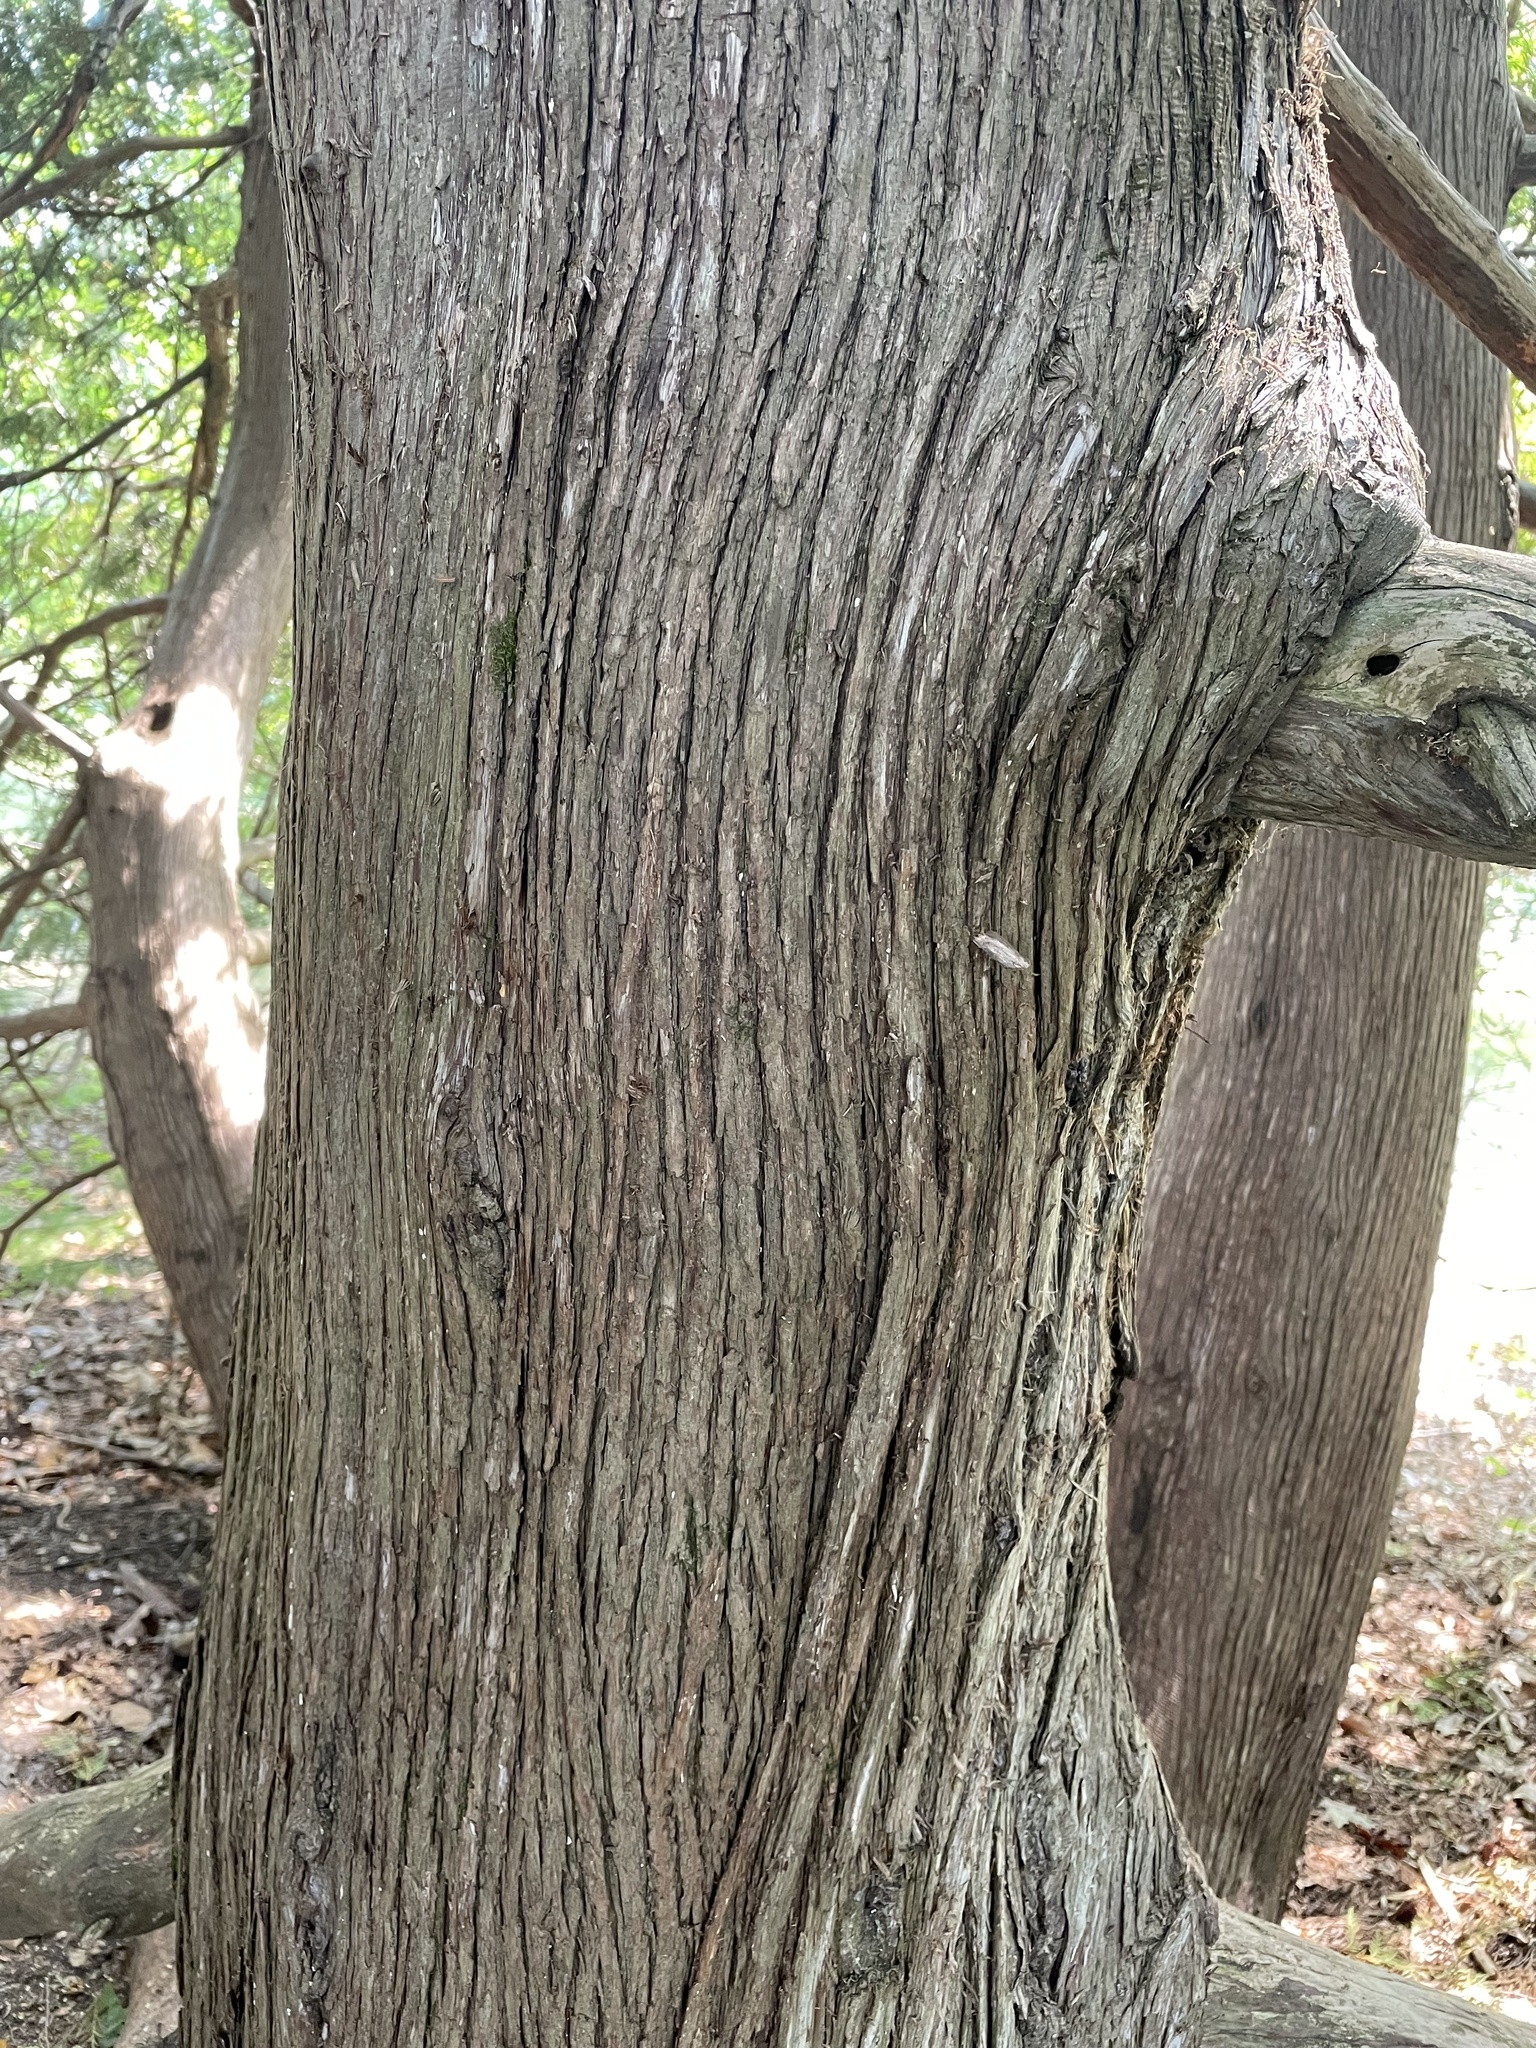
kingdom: Plantae
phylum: Tracheophyta
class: Pinopsida
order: Pinales
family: Cupressaceae
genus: Thuja
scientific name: Thuja occidentalis
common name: Northern white-cedar
